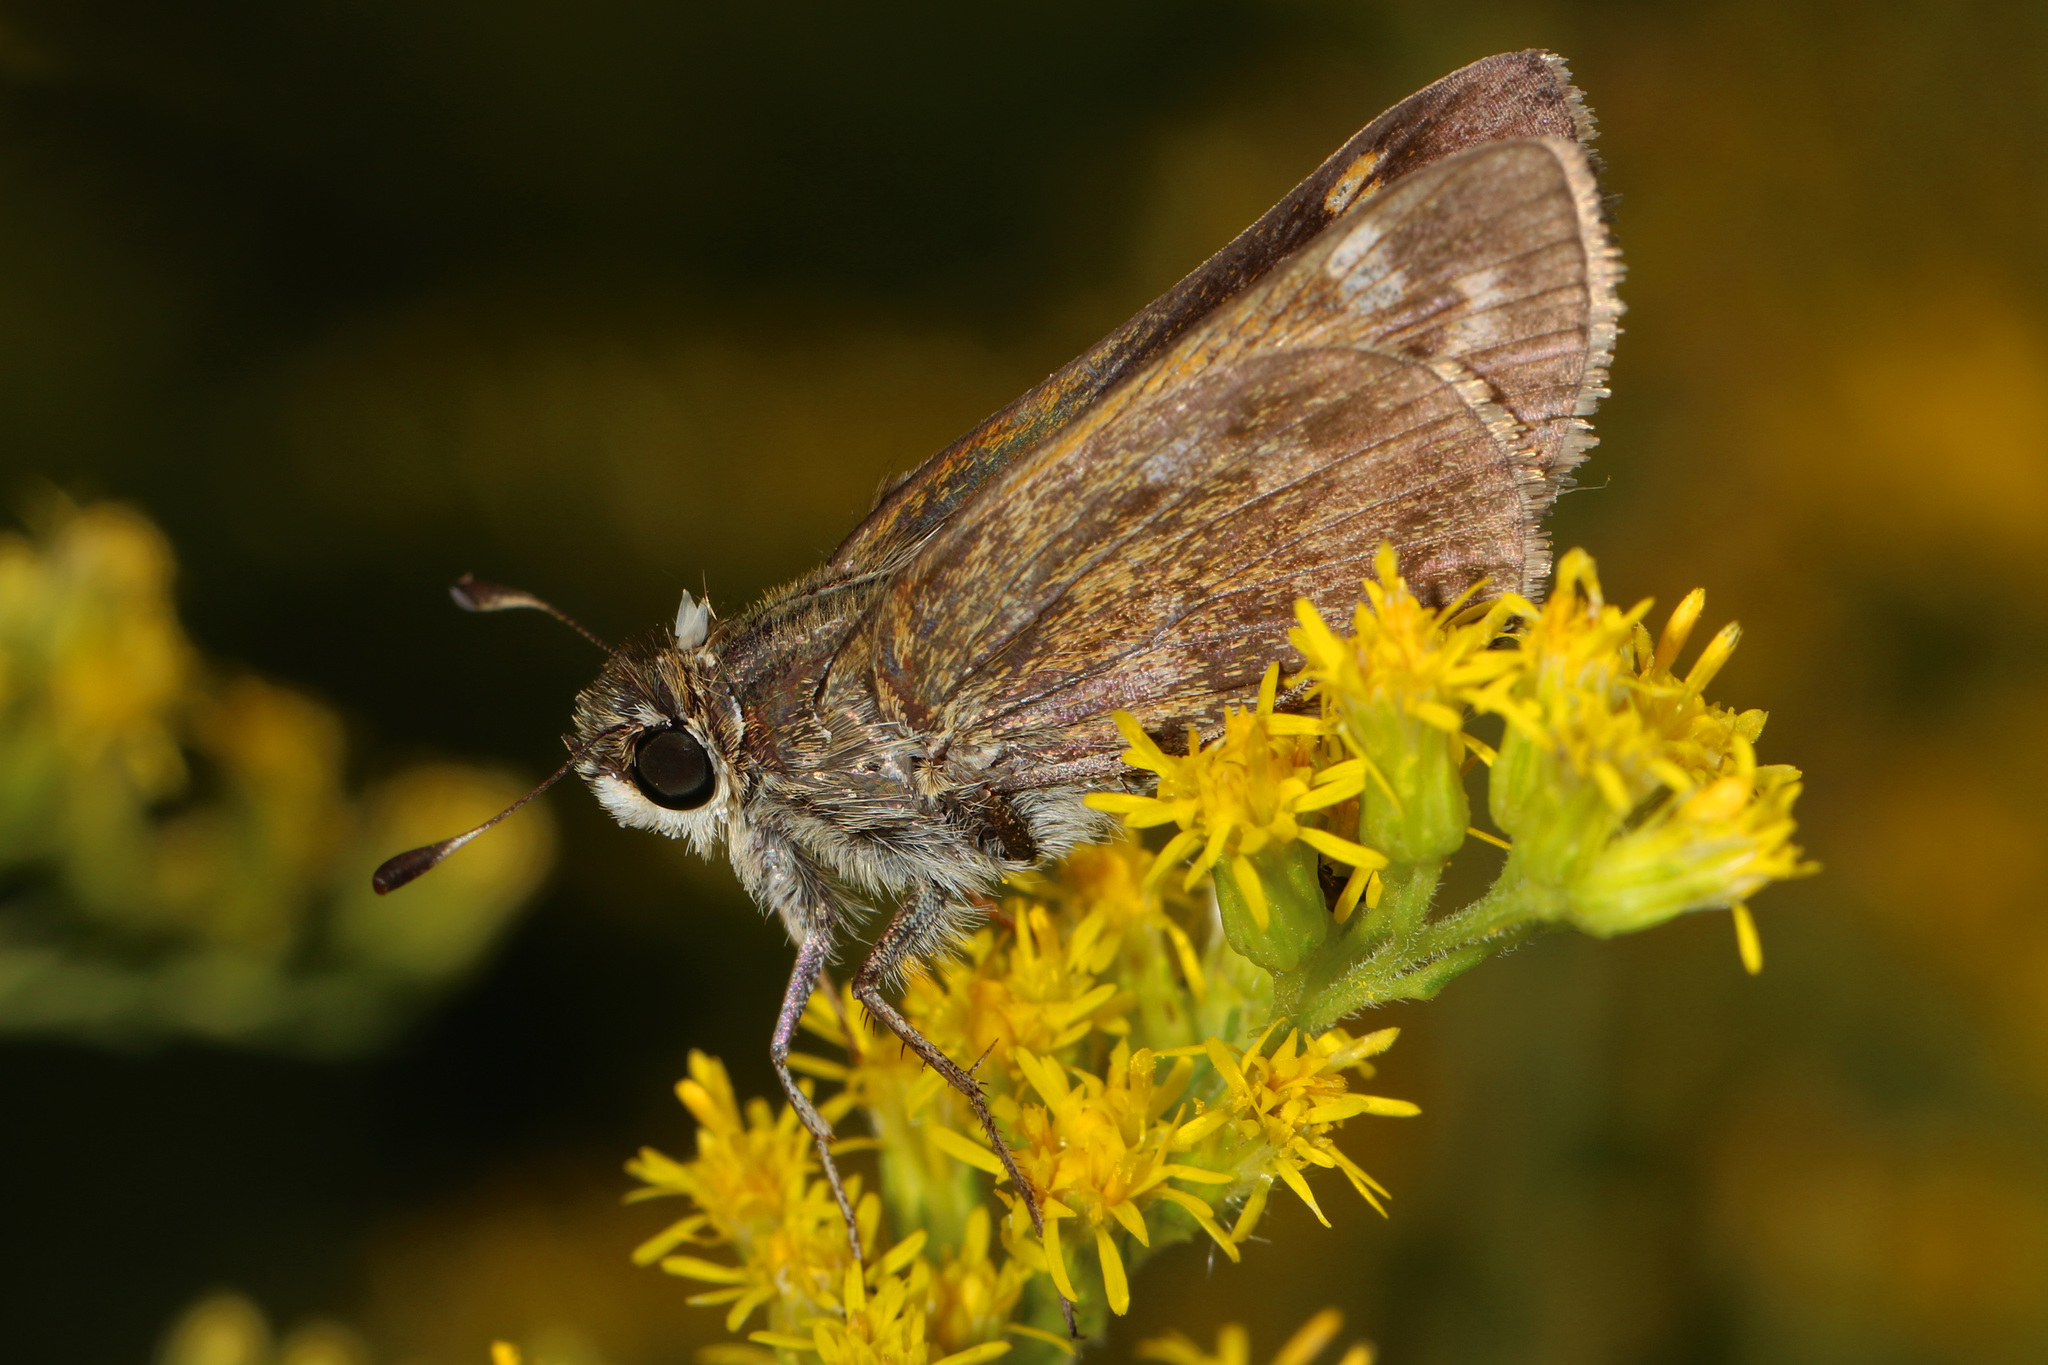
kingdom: Animalia
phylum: Arthropoda
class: Insecta
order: Lepidoptera
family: Hesperiidae
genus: Atalopedes
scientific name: Atalopedes
